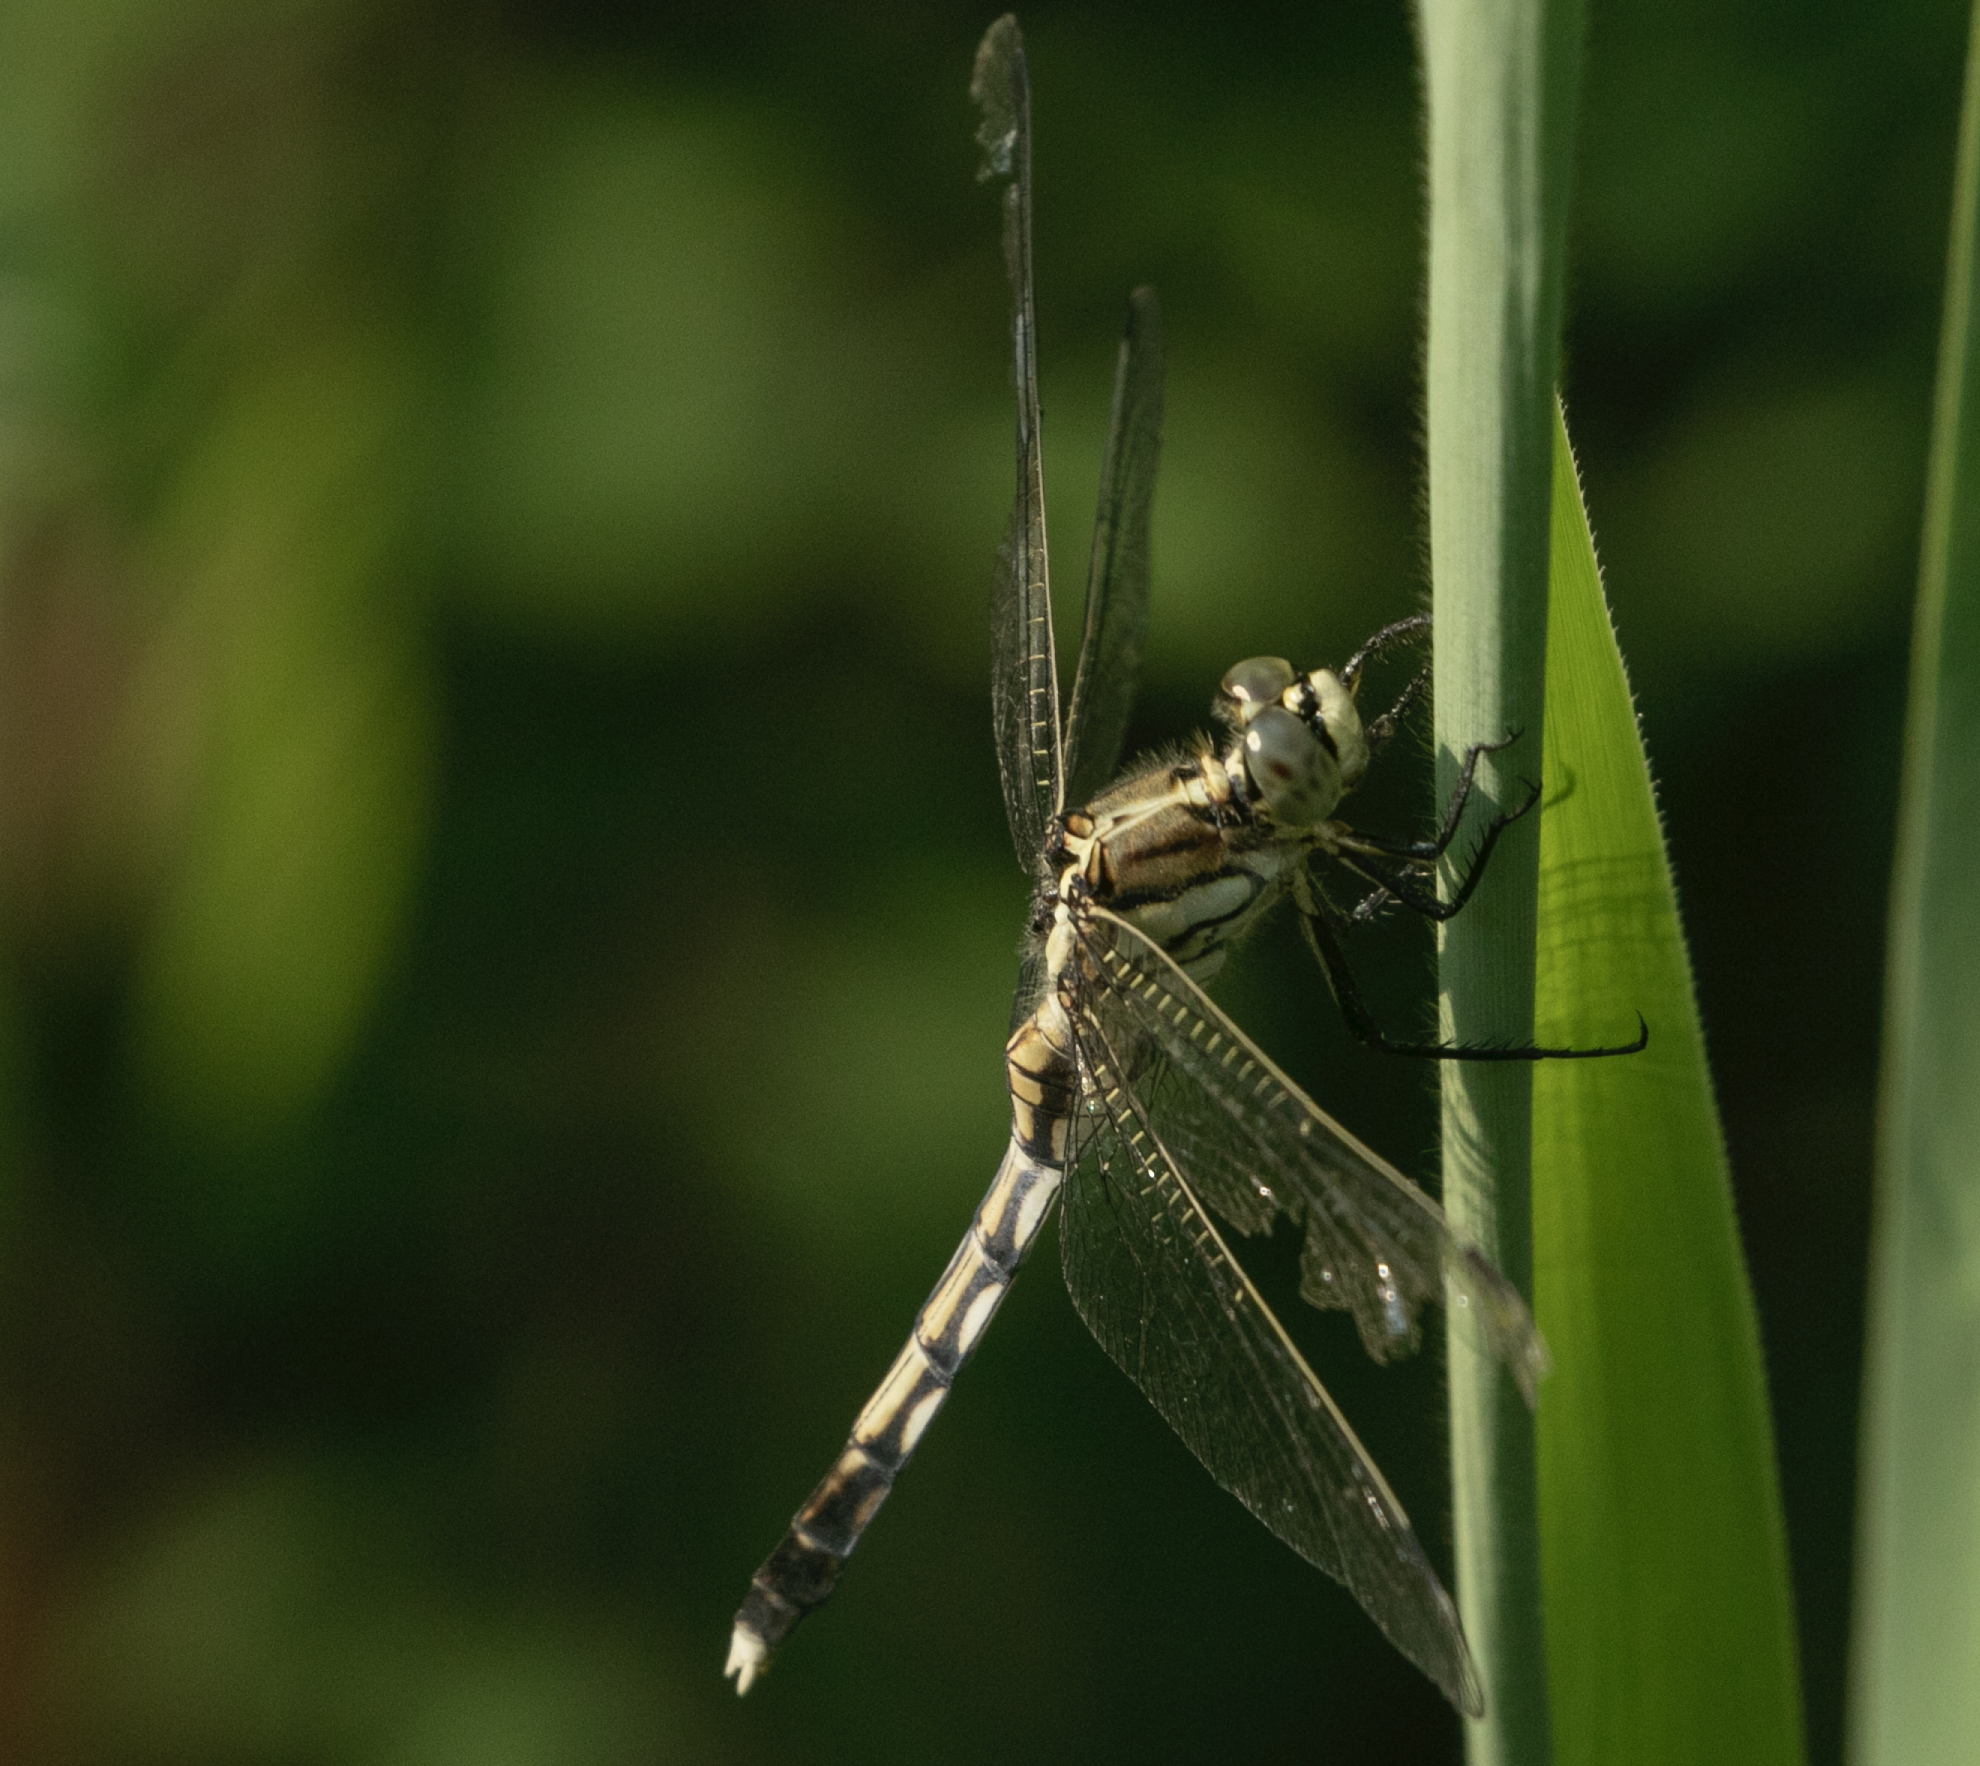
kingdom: Animalia
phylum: Arthropoda
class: Insecta
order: Odonata
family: Libellulidae
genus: Orthetrum
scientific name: Orthetrum albistylum
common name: White-tailed skimmer
